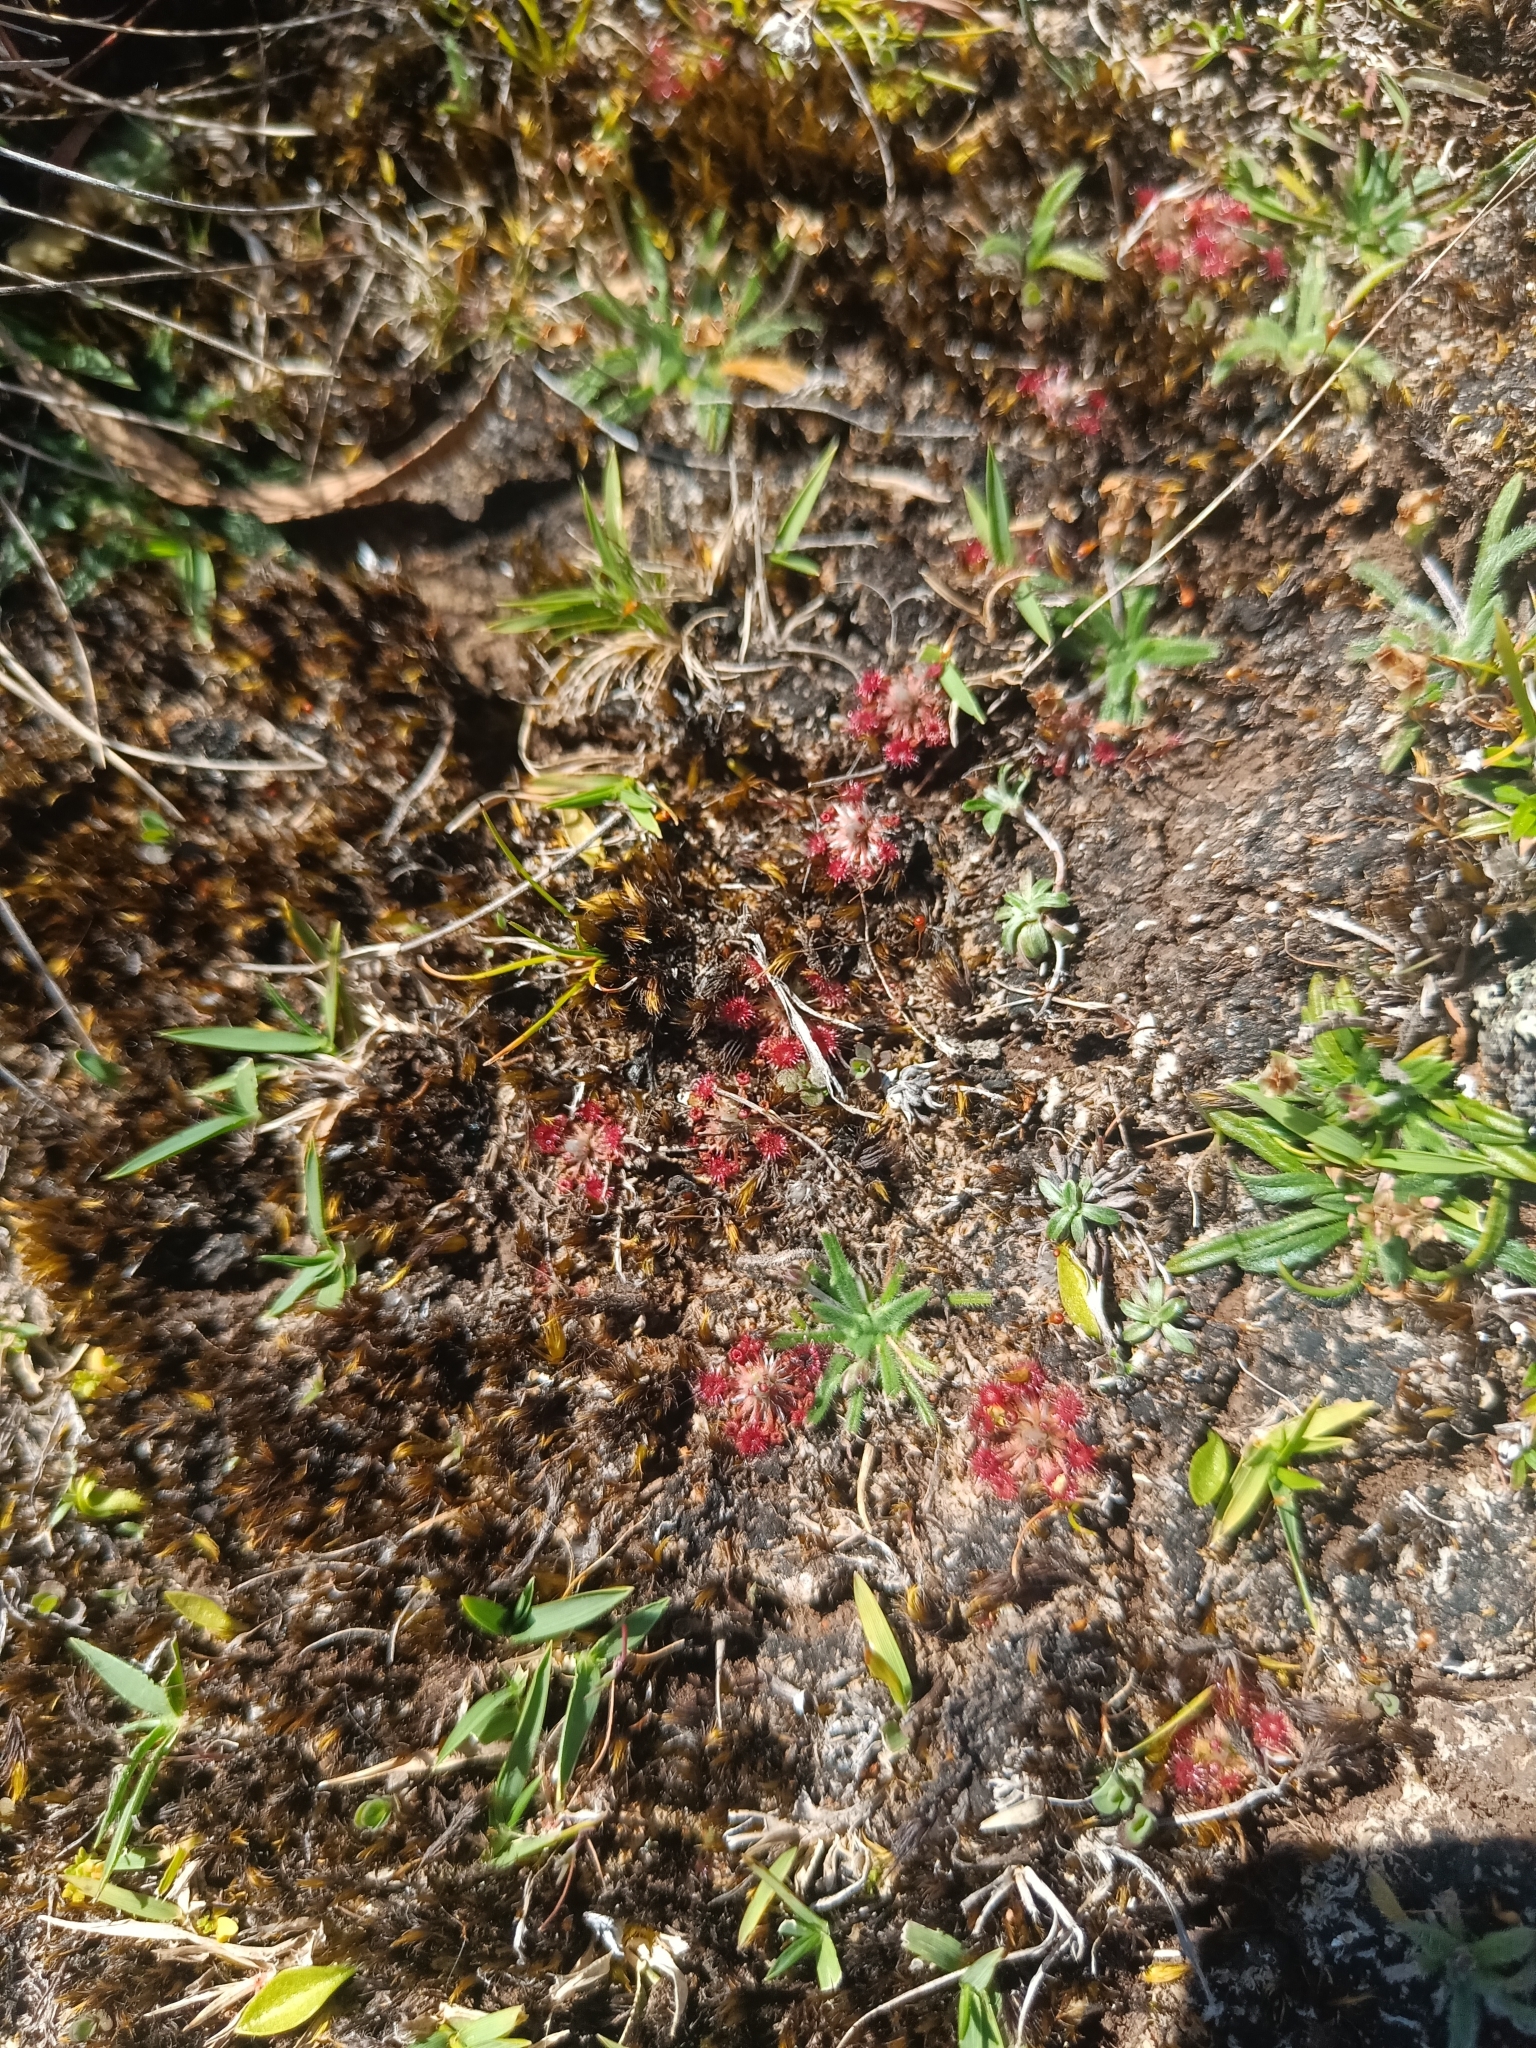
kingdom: Plantae
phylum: Tracheophyta
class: Magnoliopsida
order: Caryophyllales
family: Droseraceae
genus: Drosera
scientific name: Drosera pygmaea
